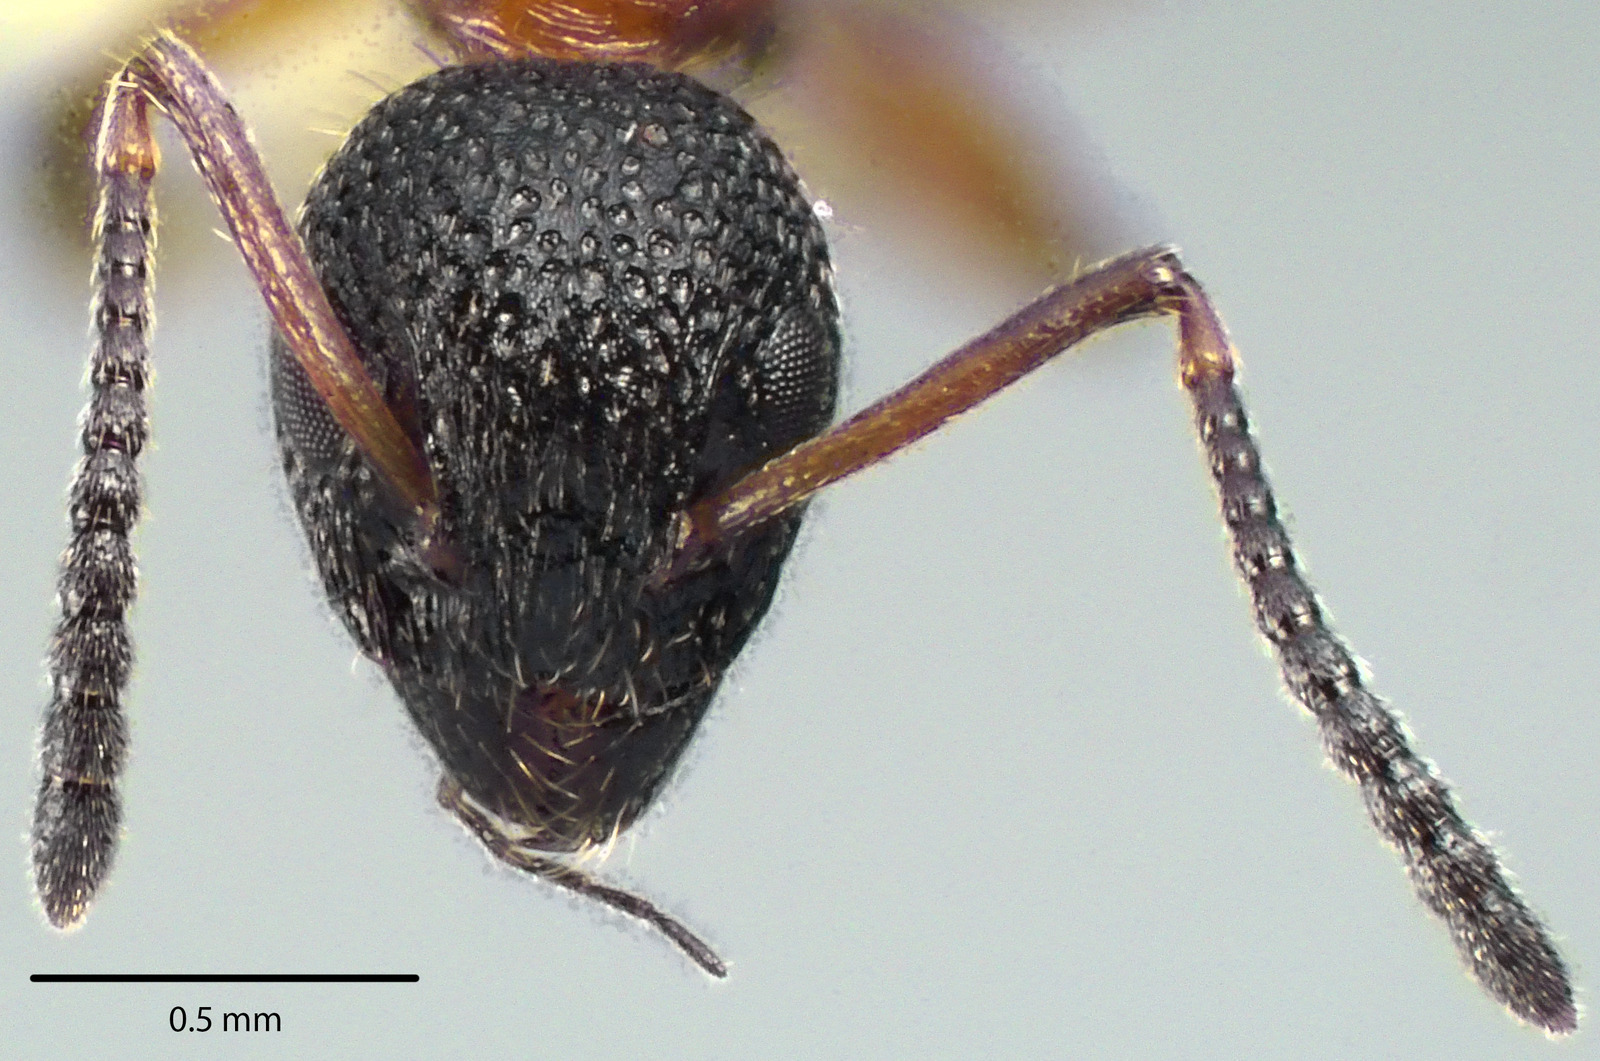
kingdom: Animalia
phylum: Arthropoda
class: Insecta
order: Hymenoptera
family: Formicidae
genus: Dolichoderus
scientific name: Dolichoderus plagiatus
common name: Mottled dolichoderus
